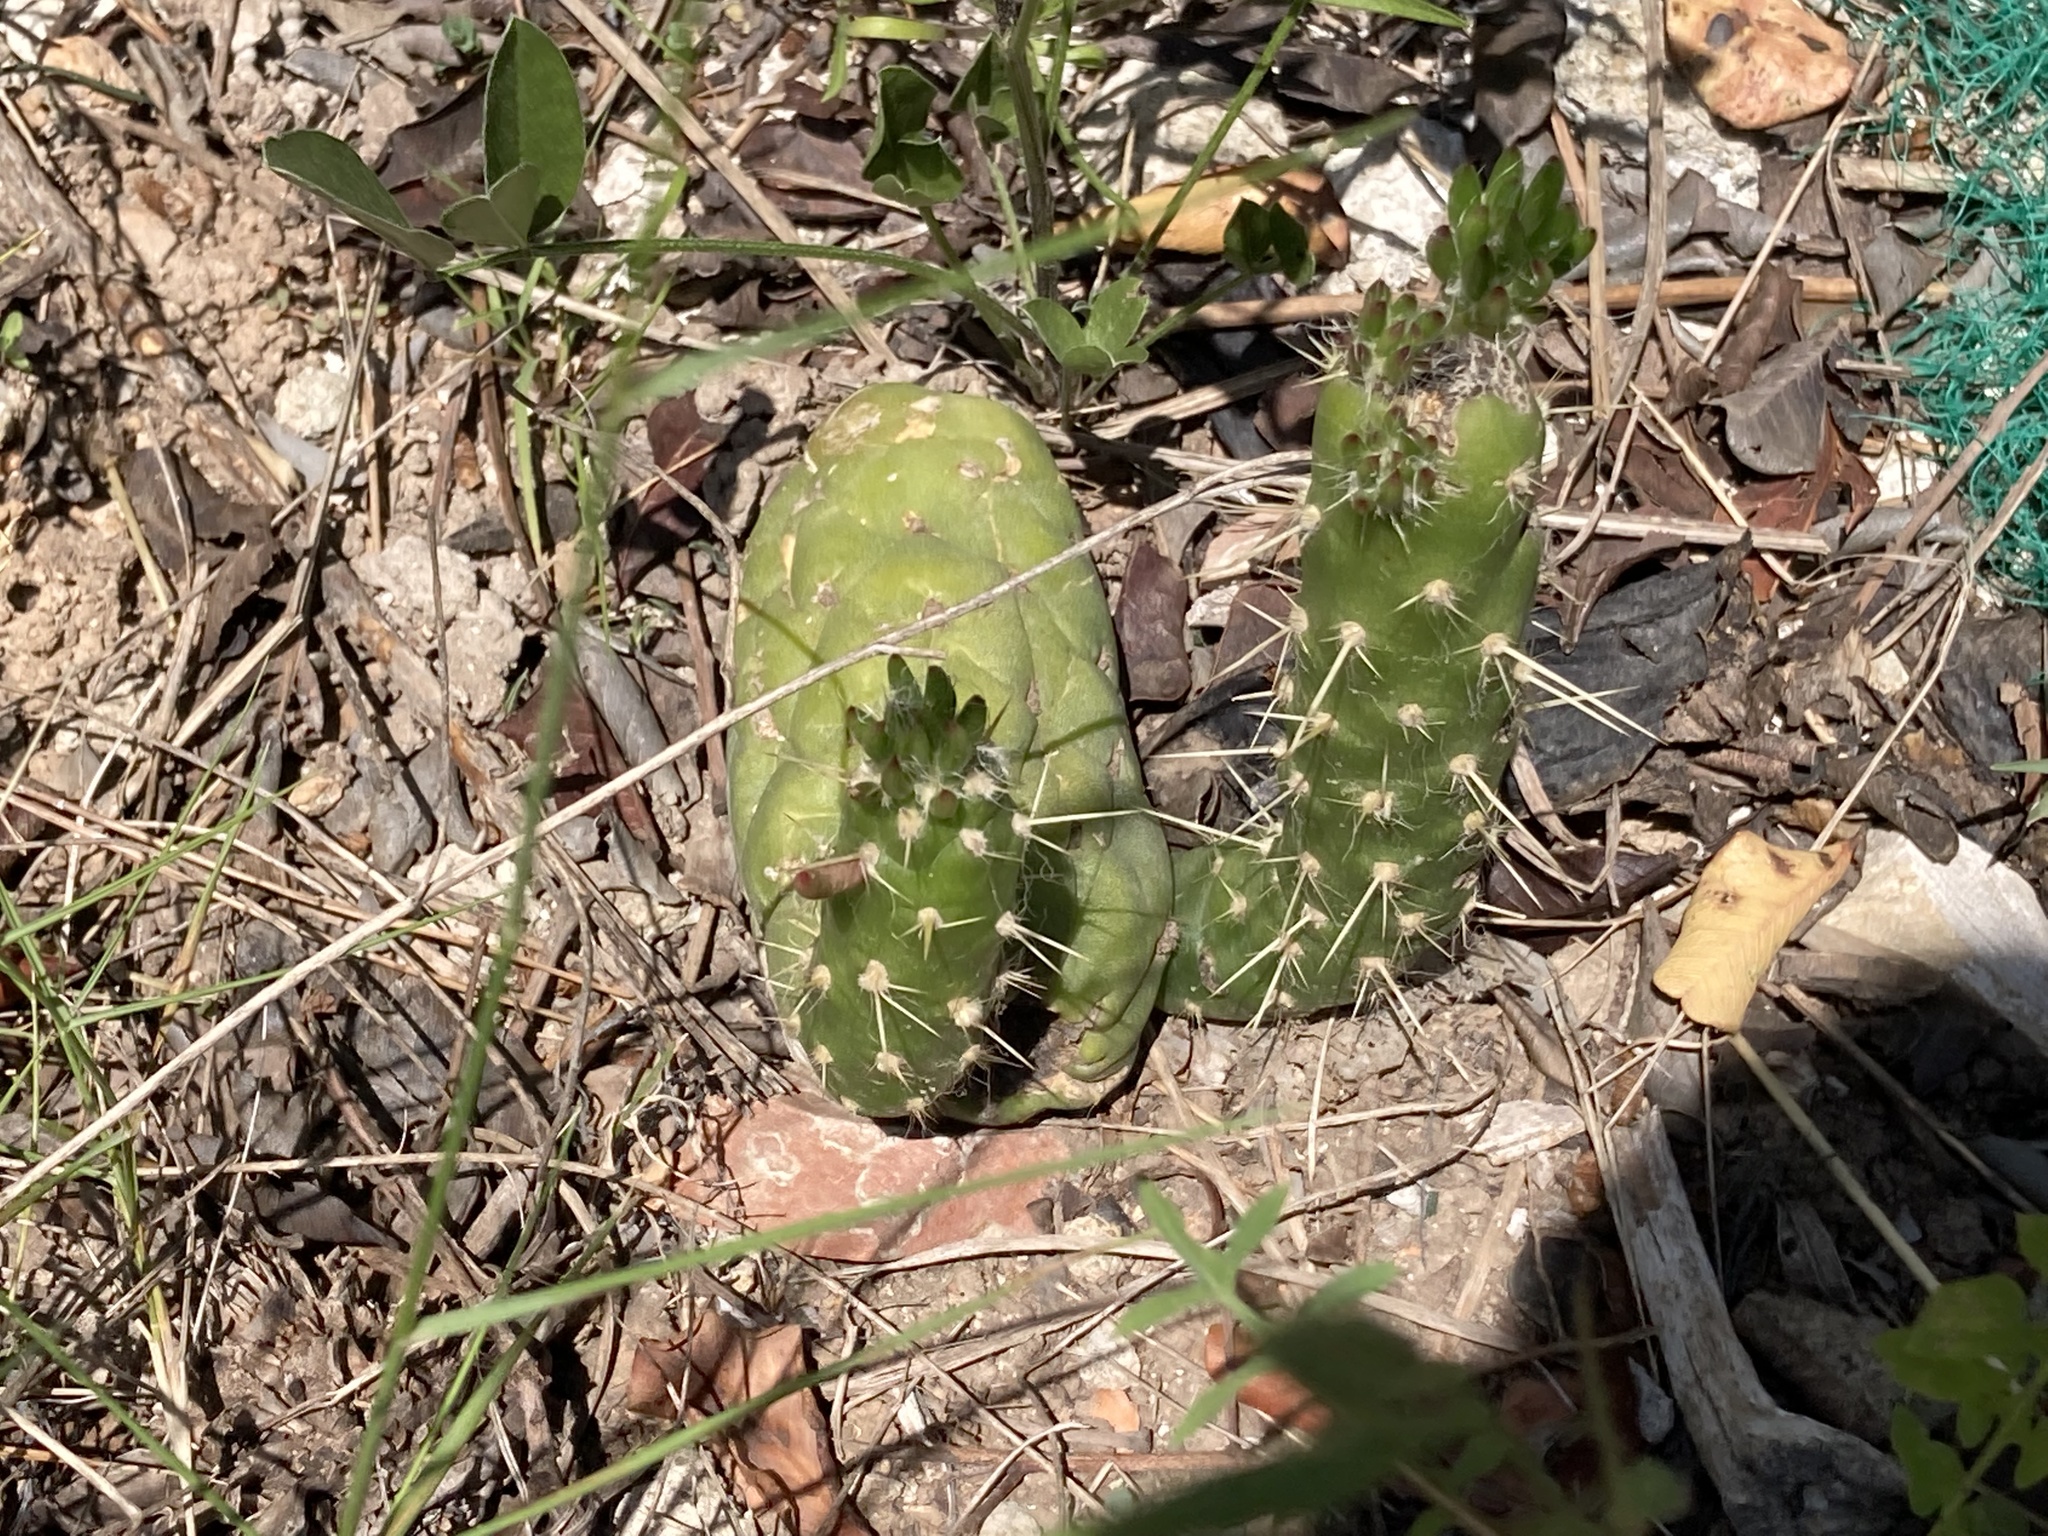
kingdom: Plantae
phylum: Tracheophyta
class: Magnoliopsida
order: Caryophyllales
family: Cactaceae
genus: Austrocylindropuntia
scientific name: Austrocylindropuntia subulata
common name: Eve's needle cactus
